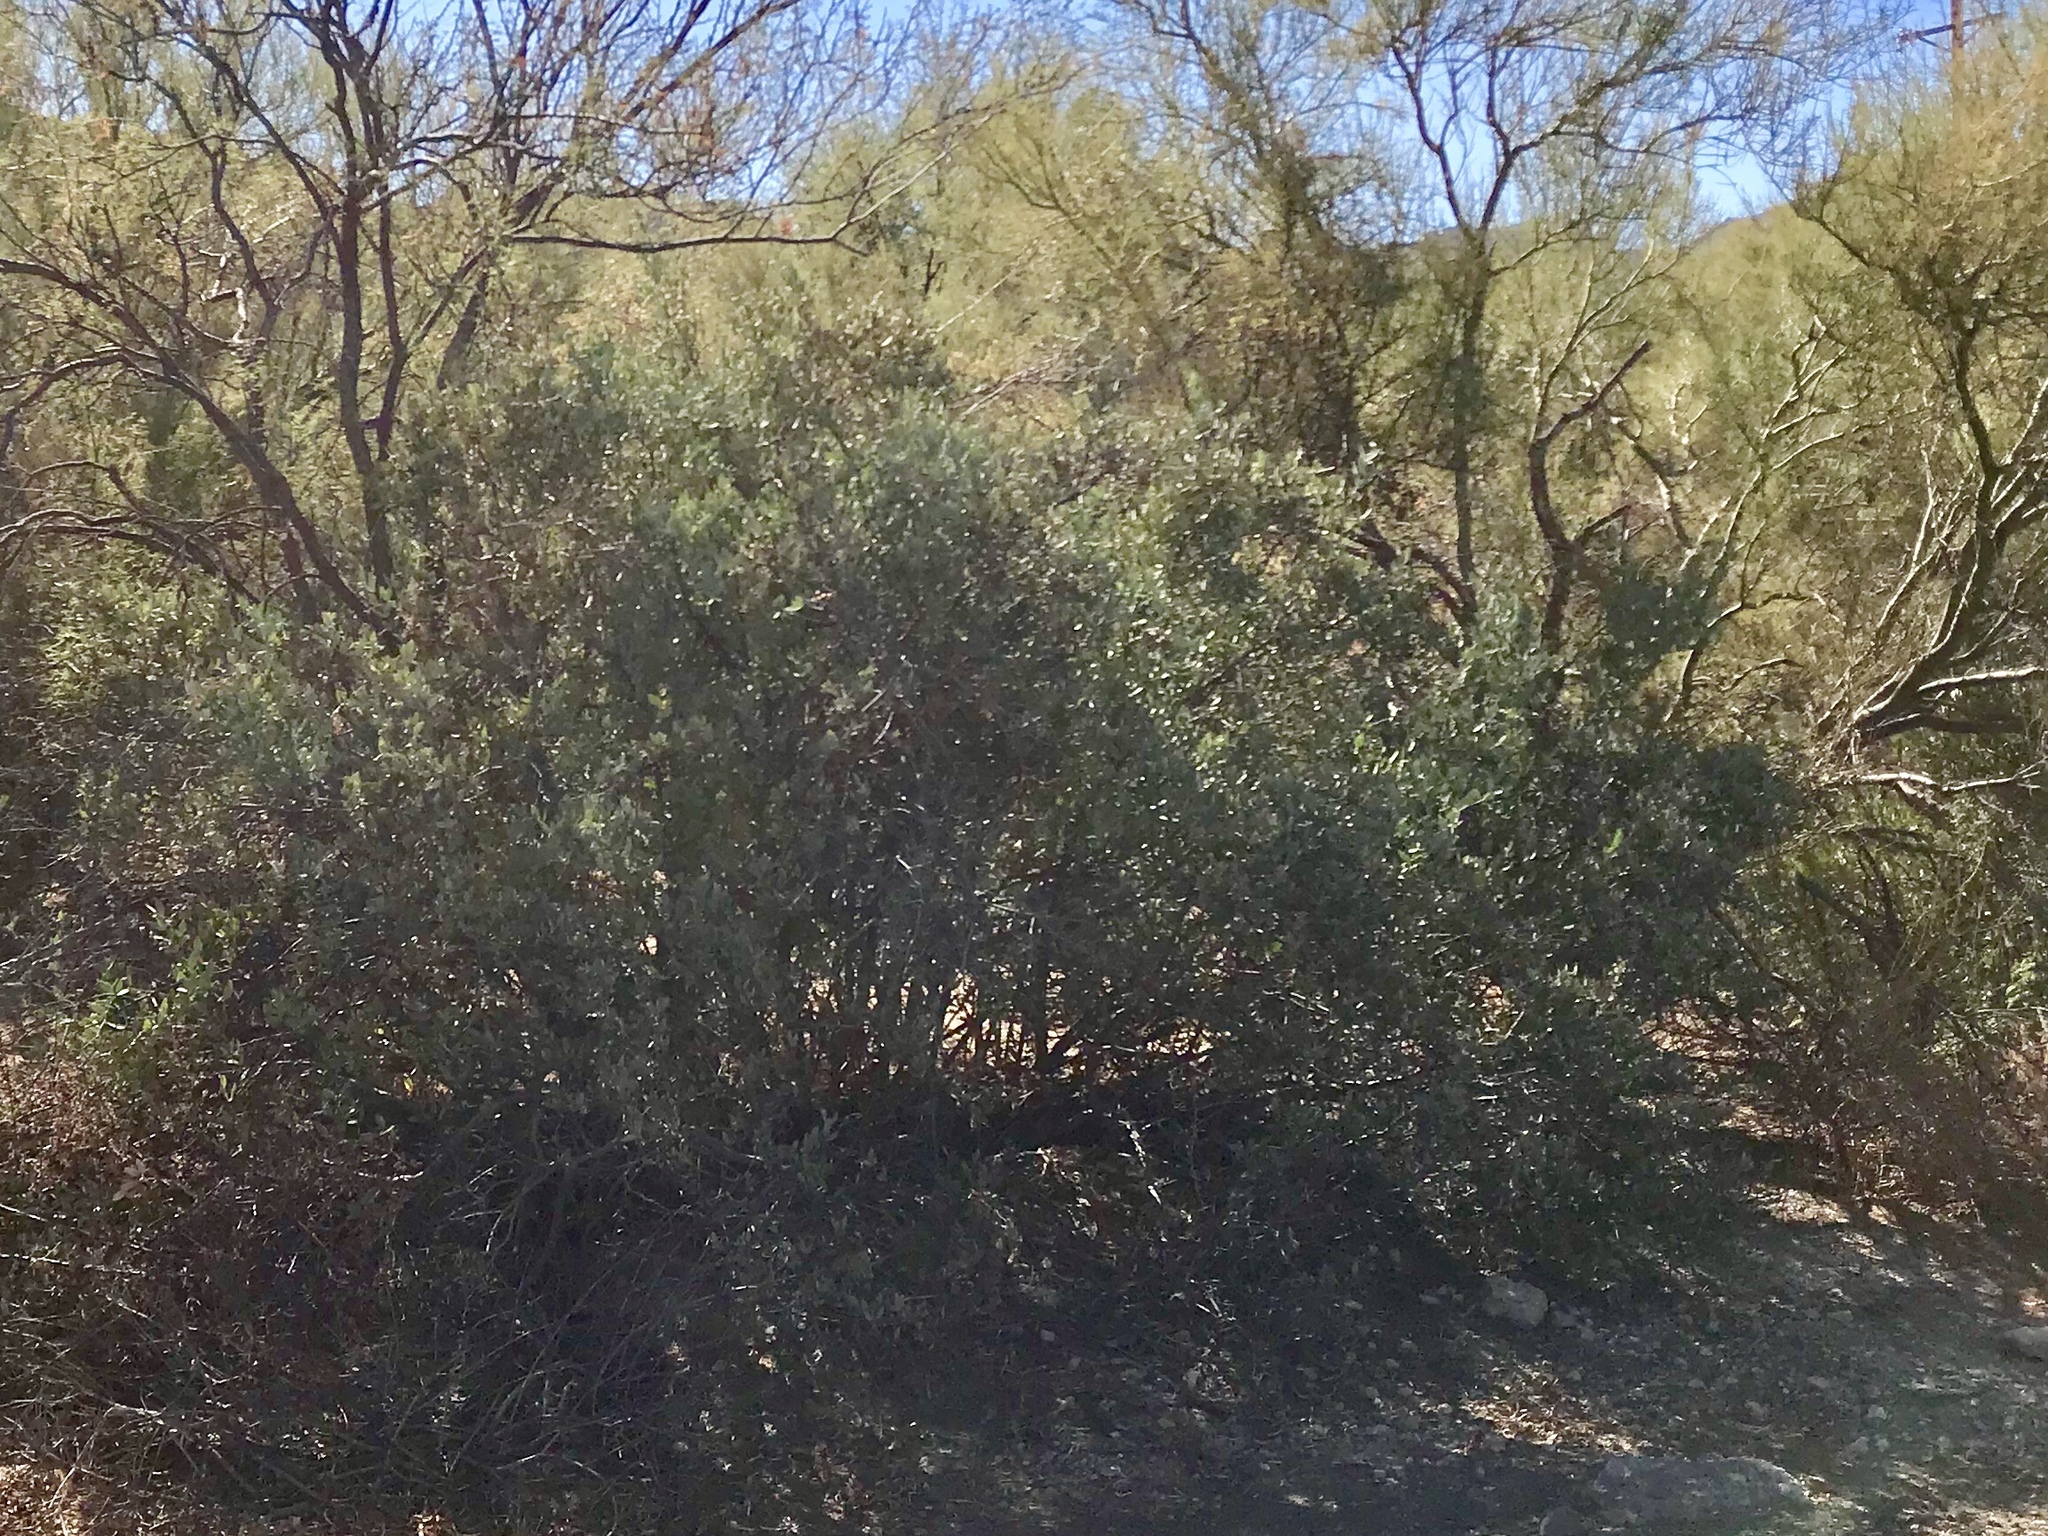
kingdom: Plantae
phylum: Tracheophyta
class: Magnoliopsida
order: Caryophyllales
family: Simmondsiaceae
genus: Simmondsia
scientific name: Simmondsia chinensis
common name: Jojoba
